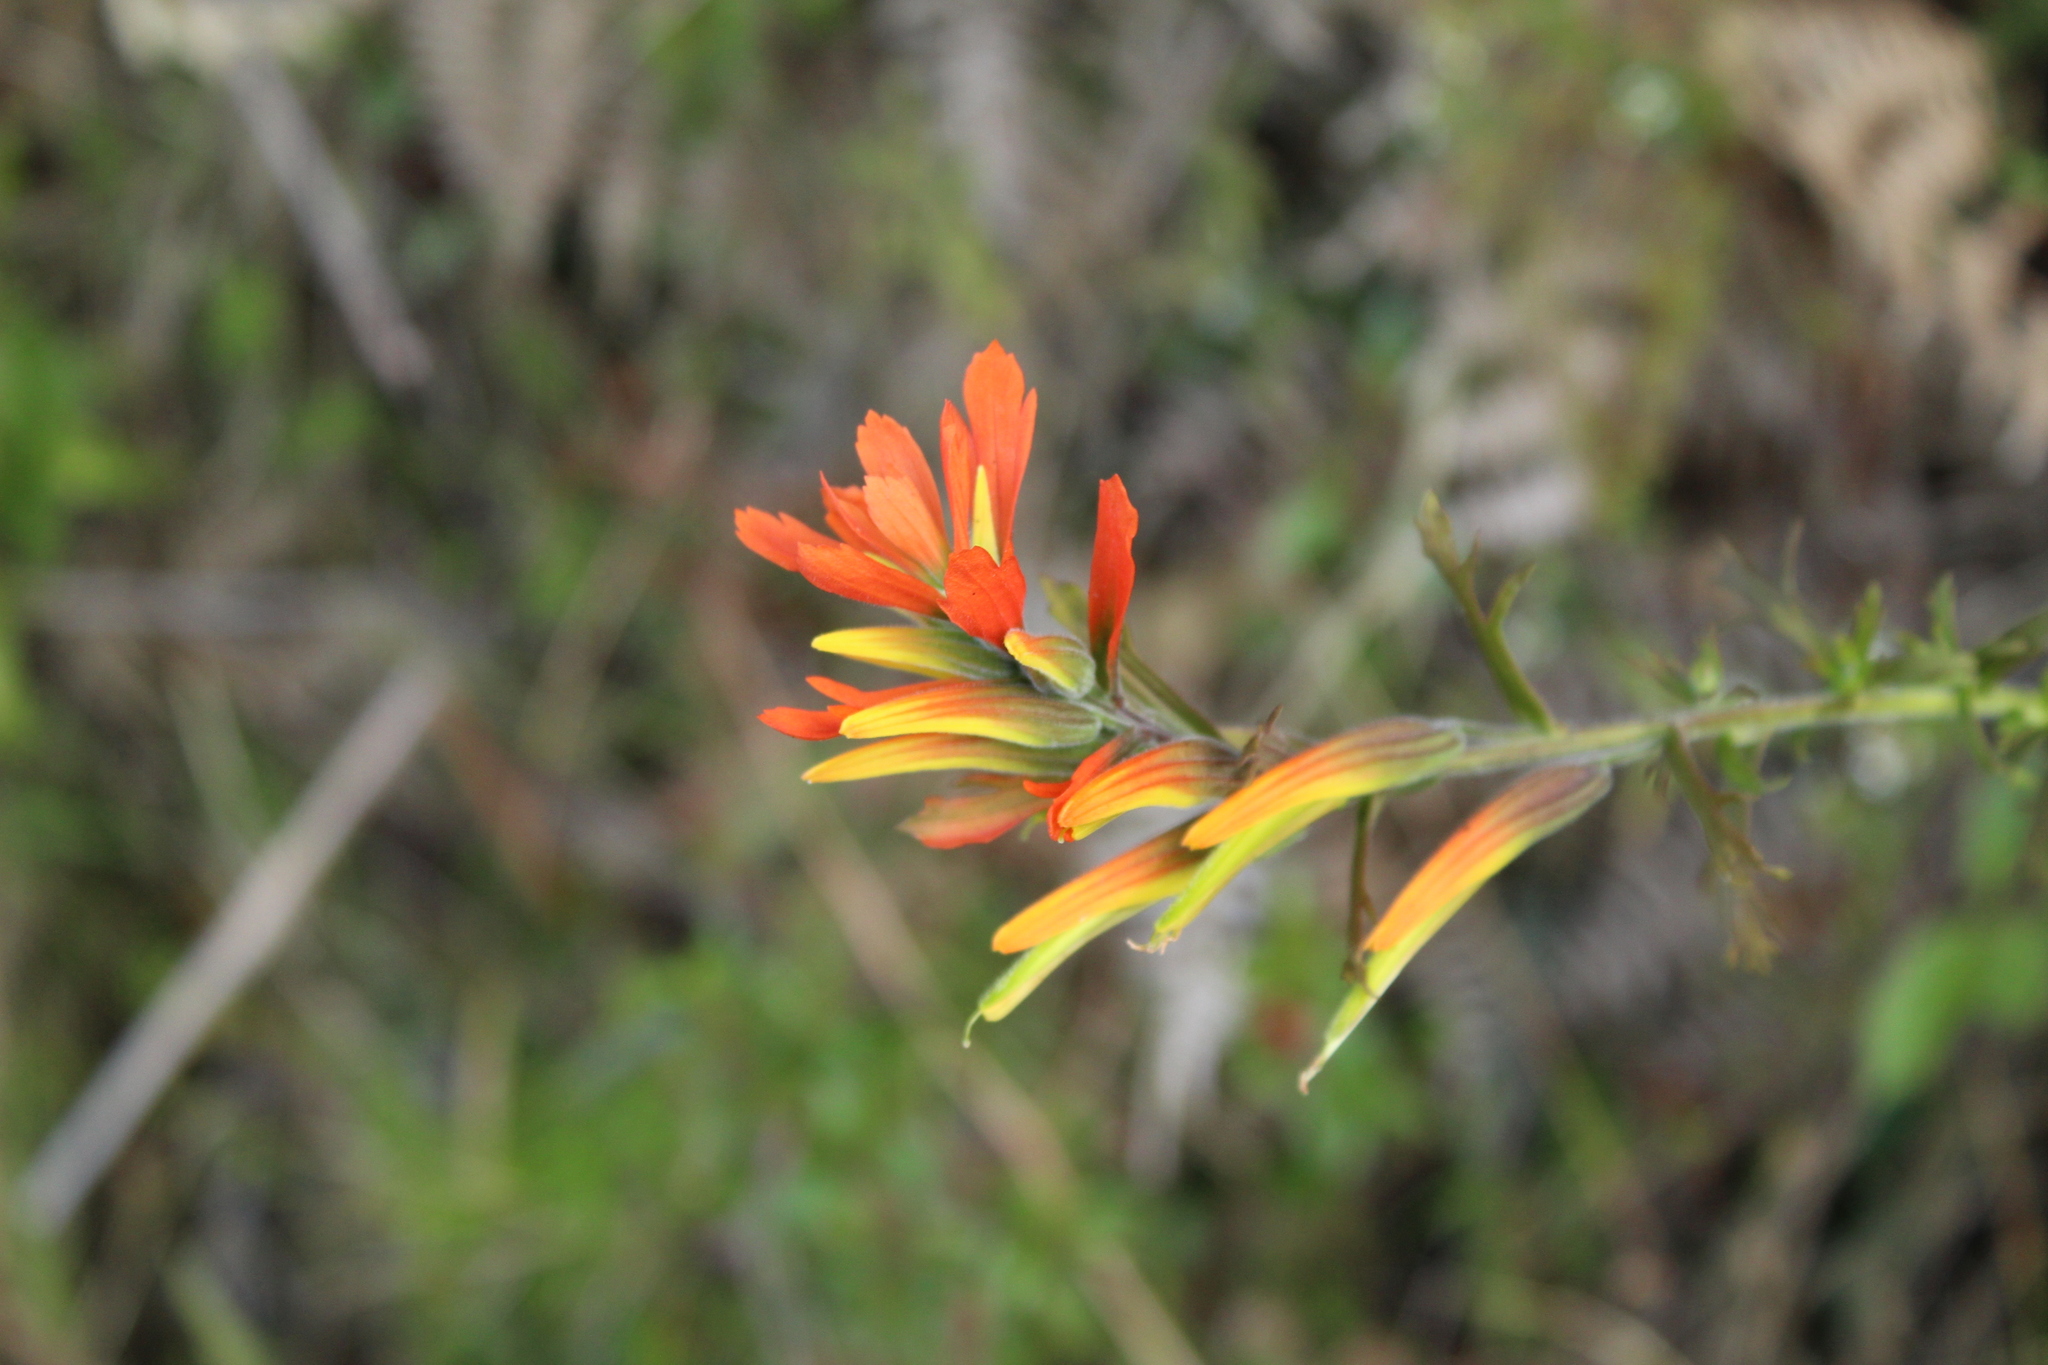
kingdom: Plantae
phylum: Tracheophyta
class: Magnoliopsida
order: Lamiales
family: Orobanchaceae
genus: Castilleja
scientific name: Castilleja fissifolia
